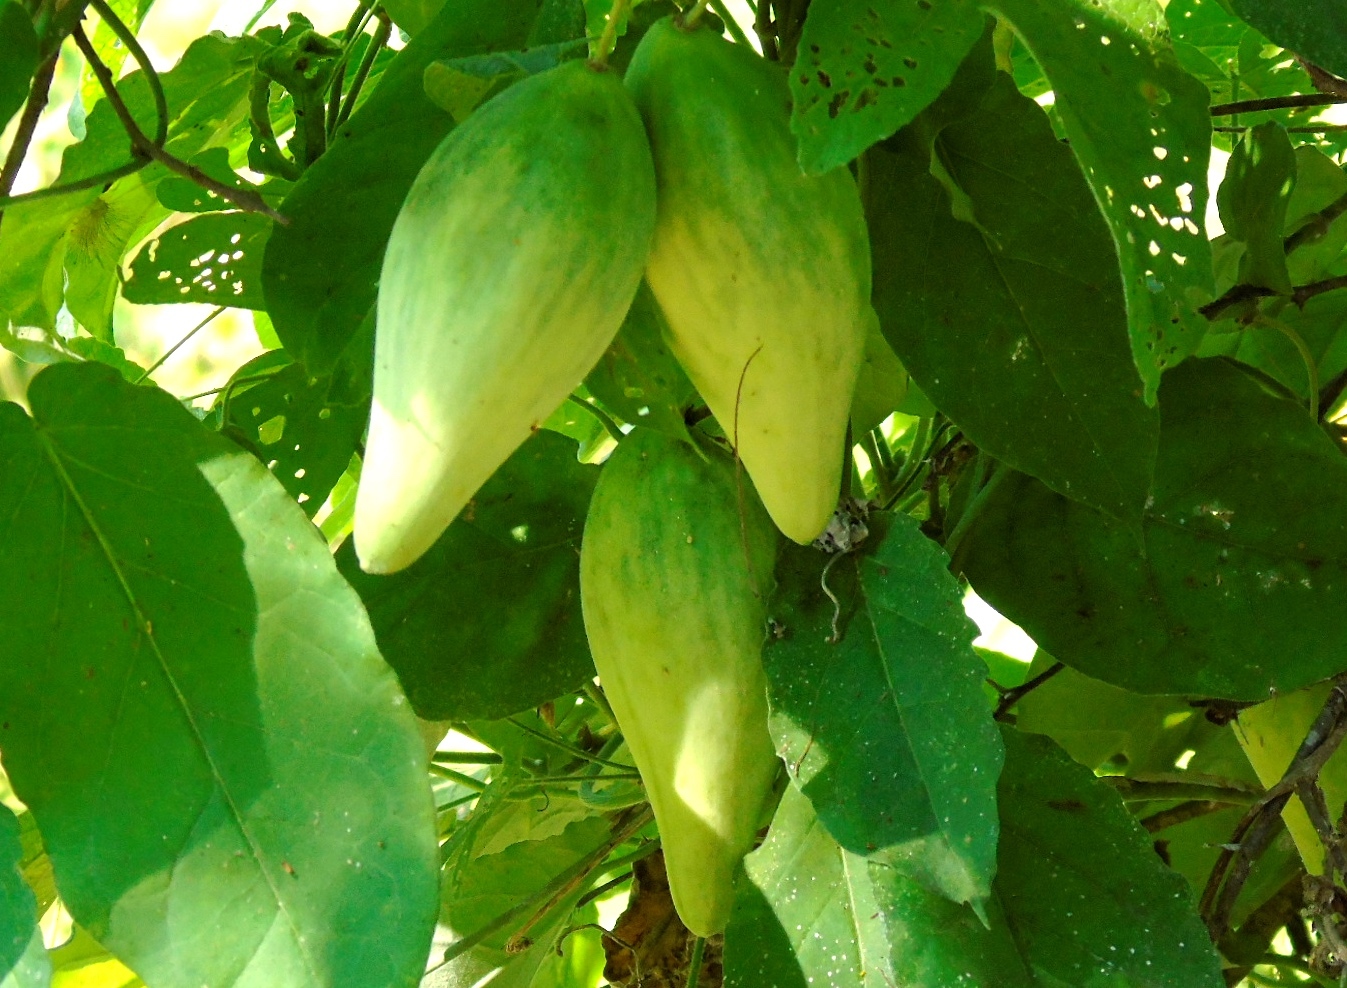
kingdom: Plantae
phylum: Tracheophyta
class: Magnoliopsida
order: Gentianales
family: Apocynaceae
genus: Funastrum
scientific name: Funastrum pannosum
